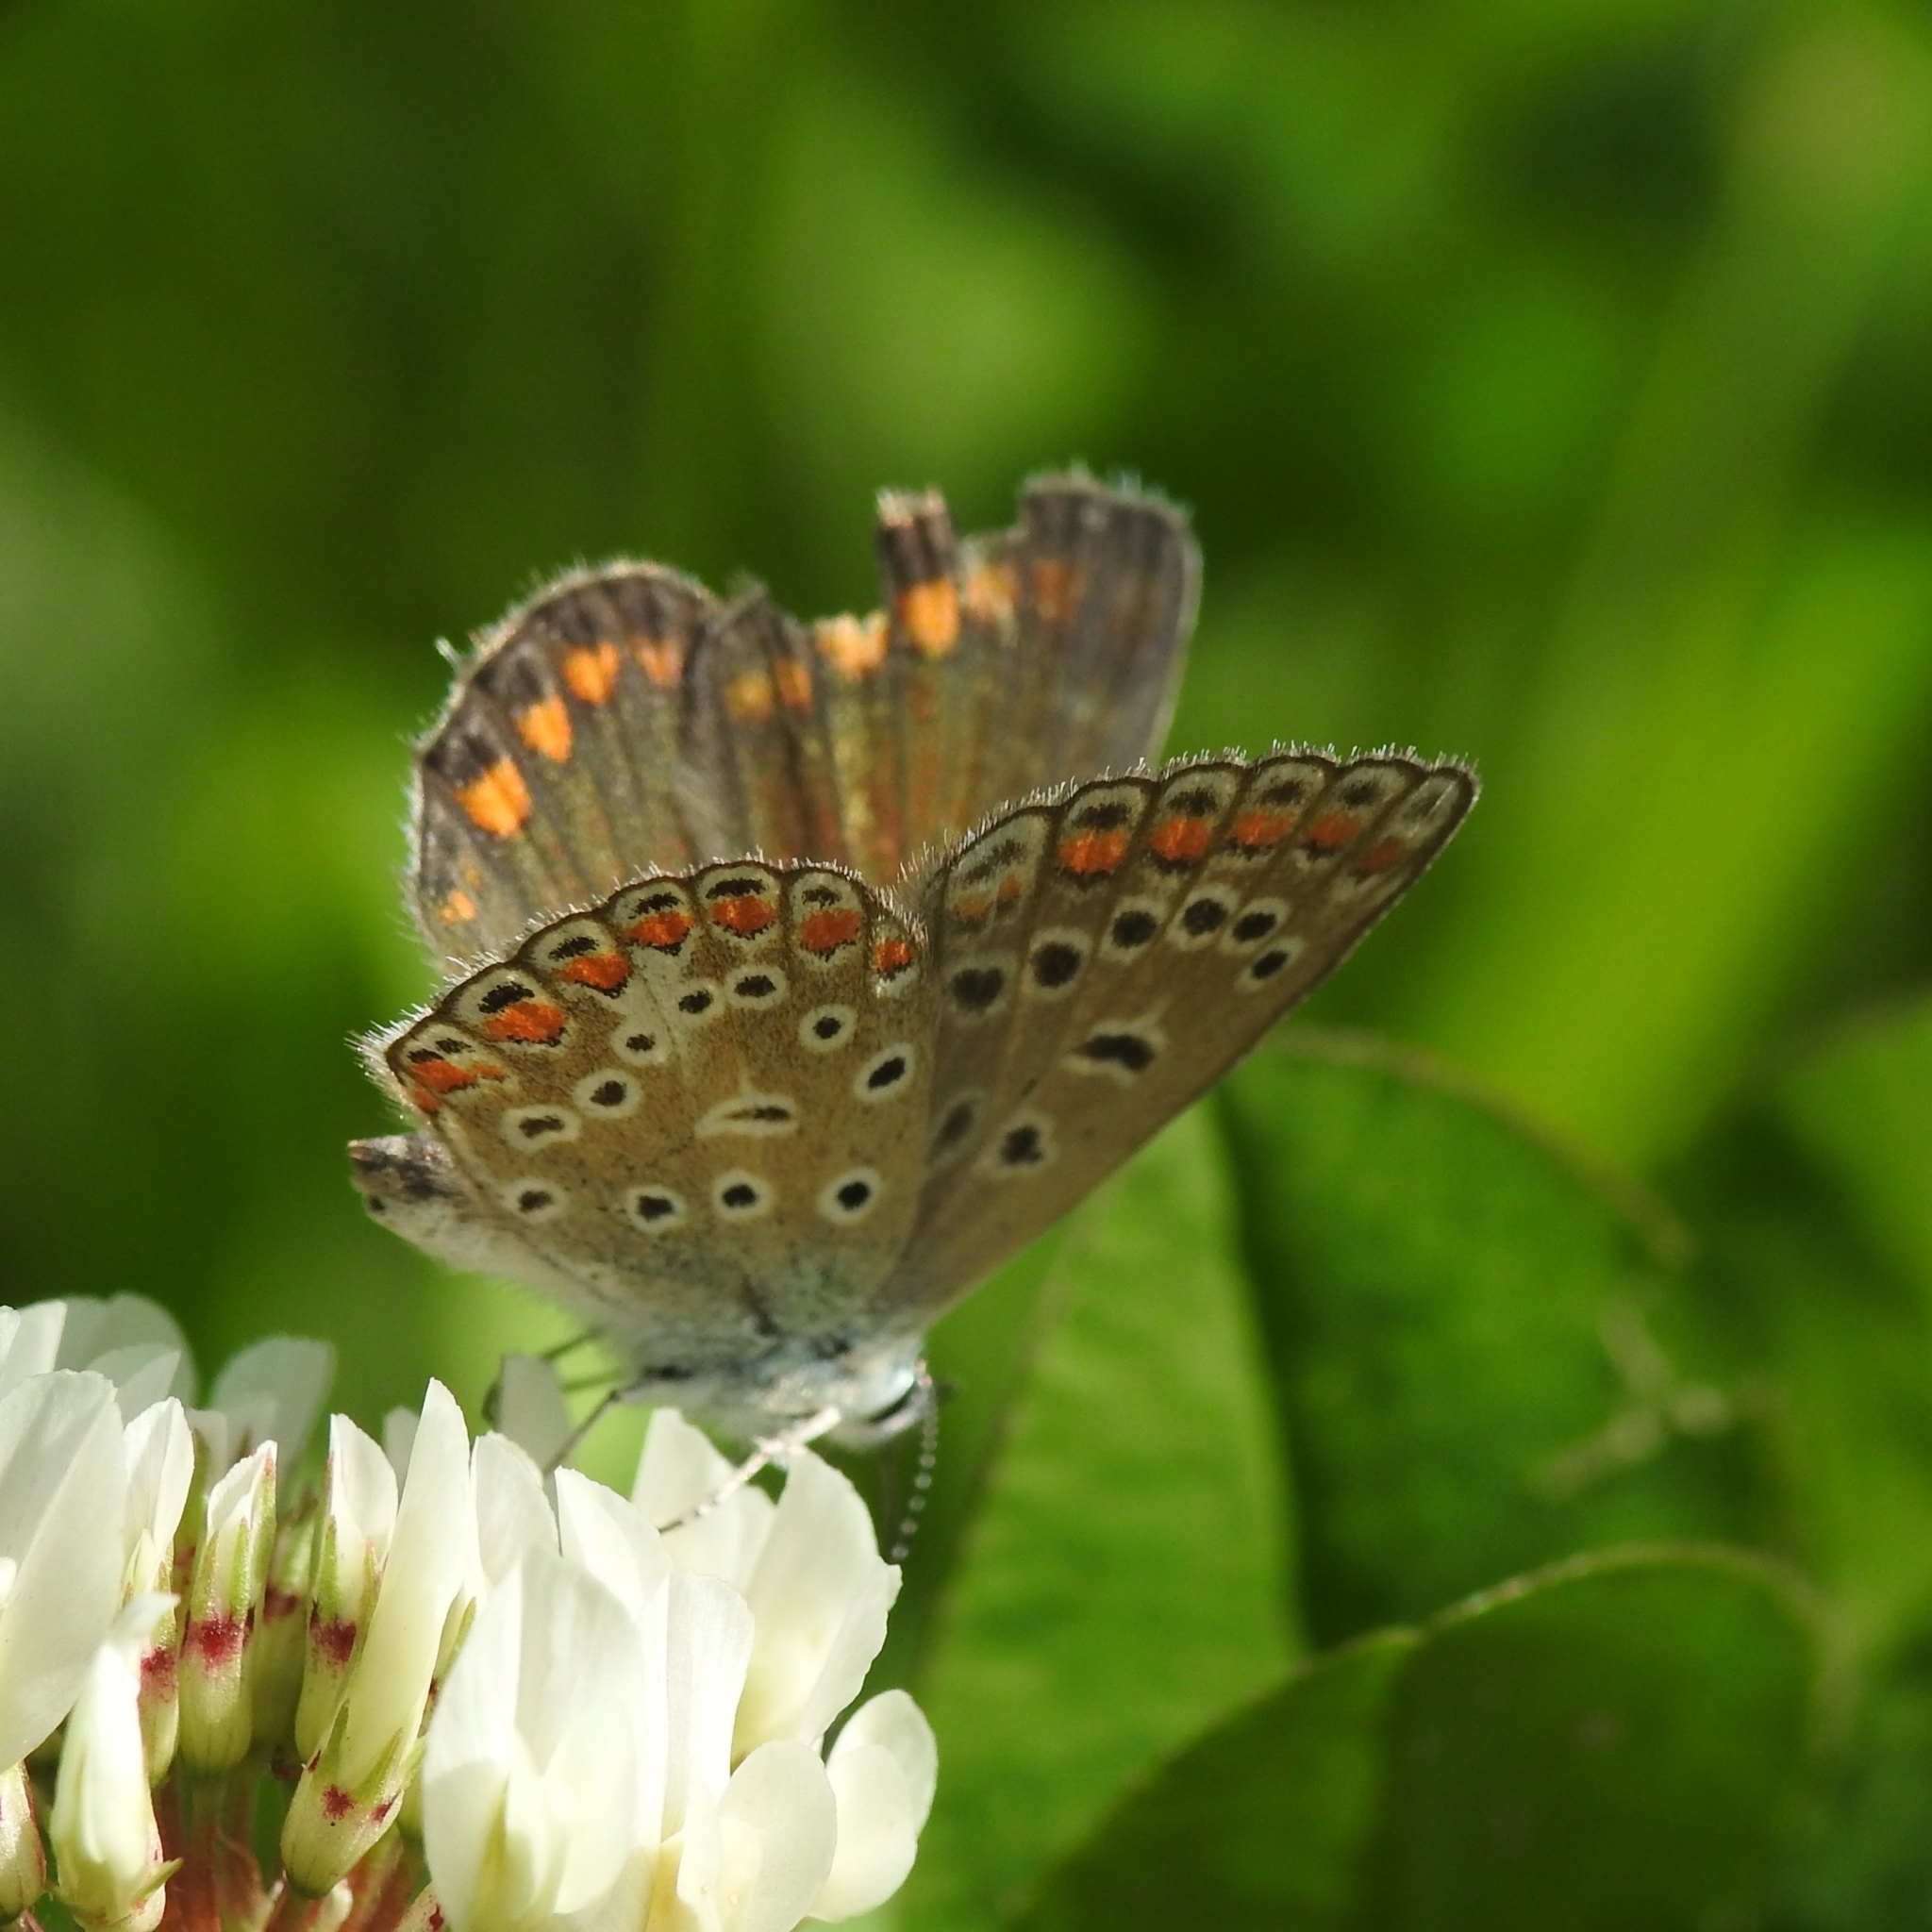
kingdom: Animalia
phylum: Arthropoda
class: Insecta
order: Lepidoptera
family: Lycaenidae
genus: Polyommatus
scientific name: Polyommatus icarus
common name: Common blue
